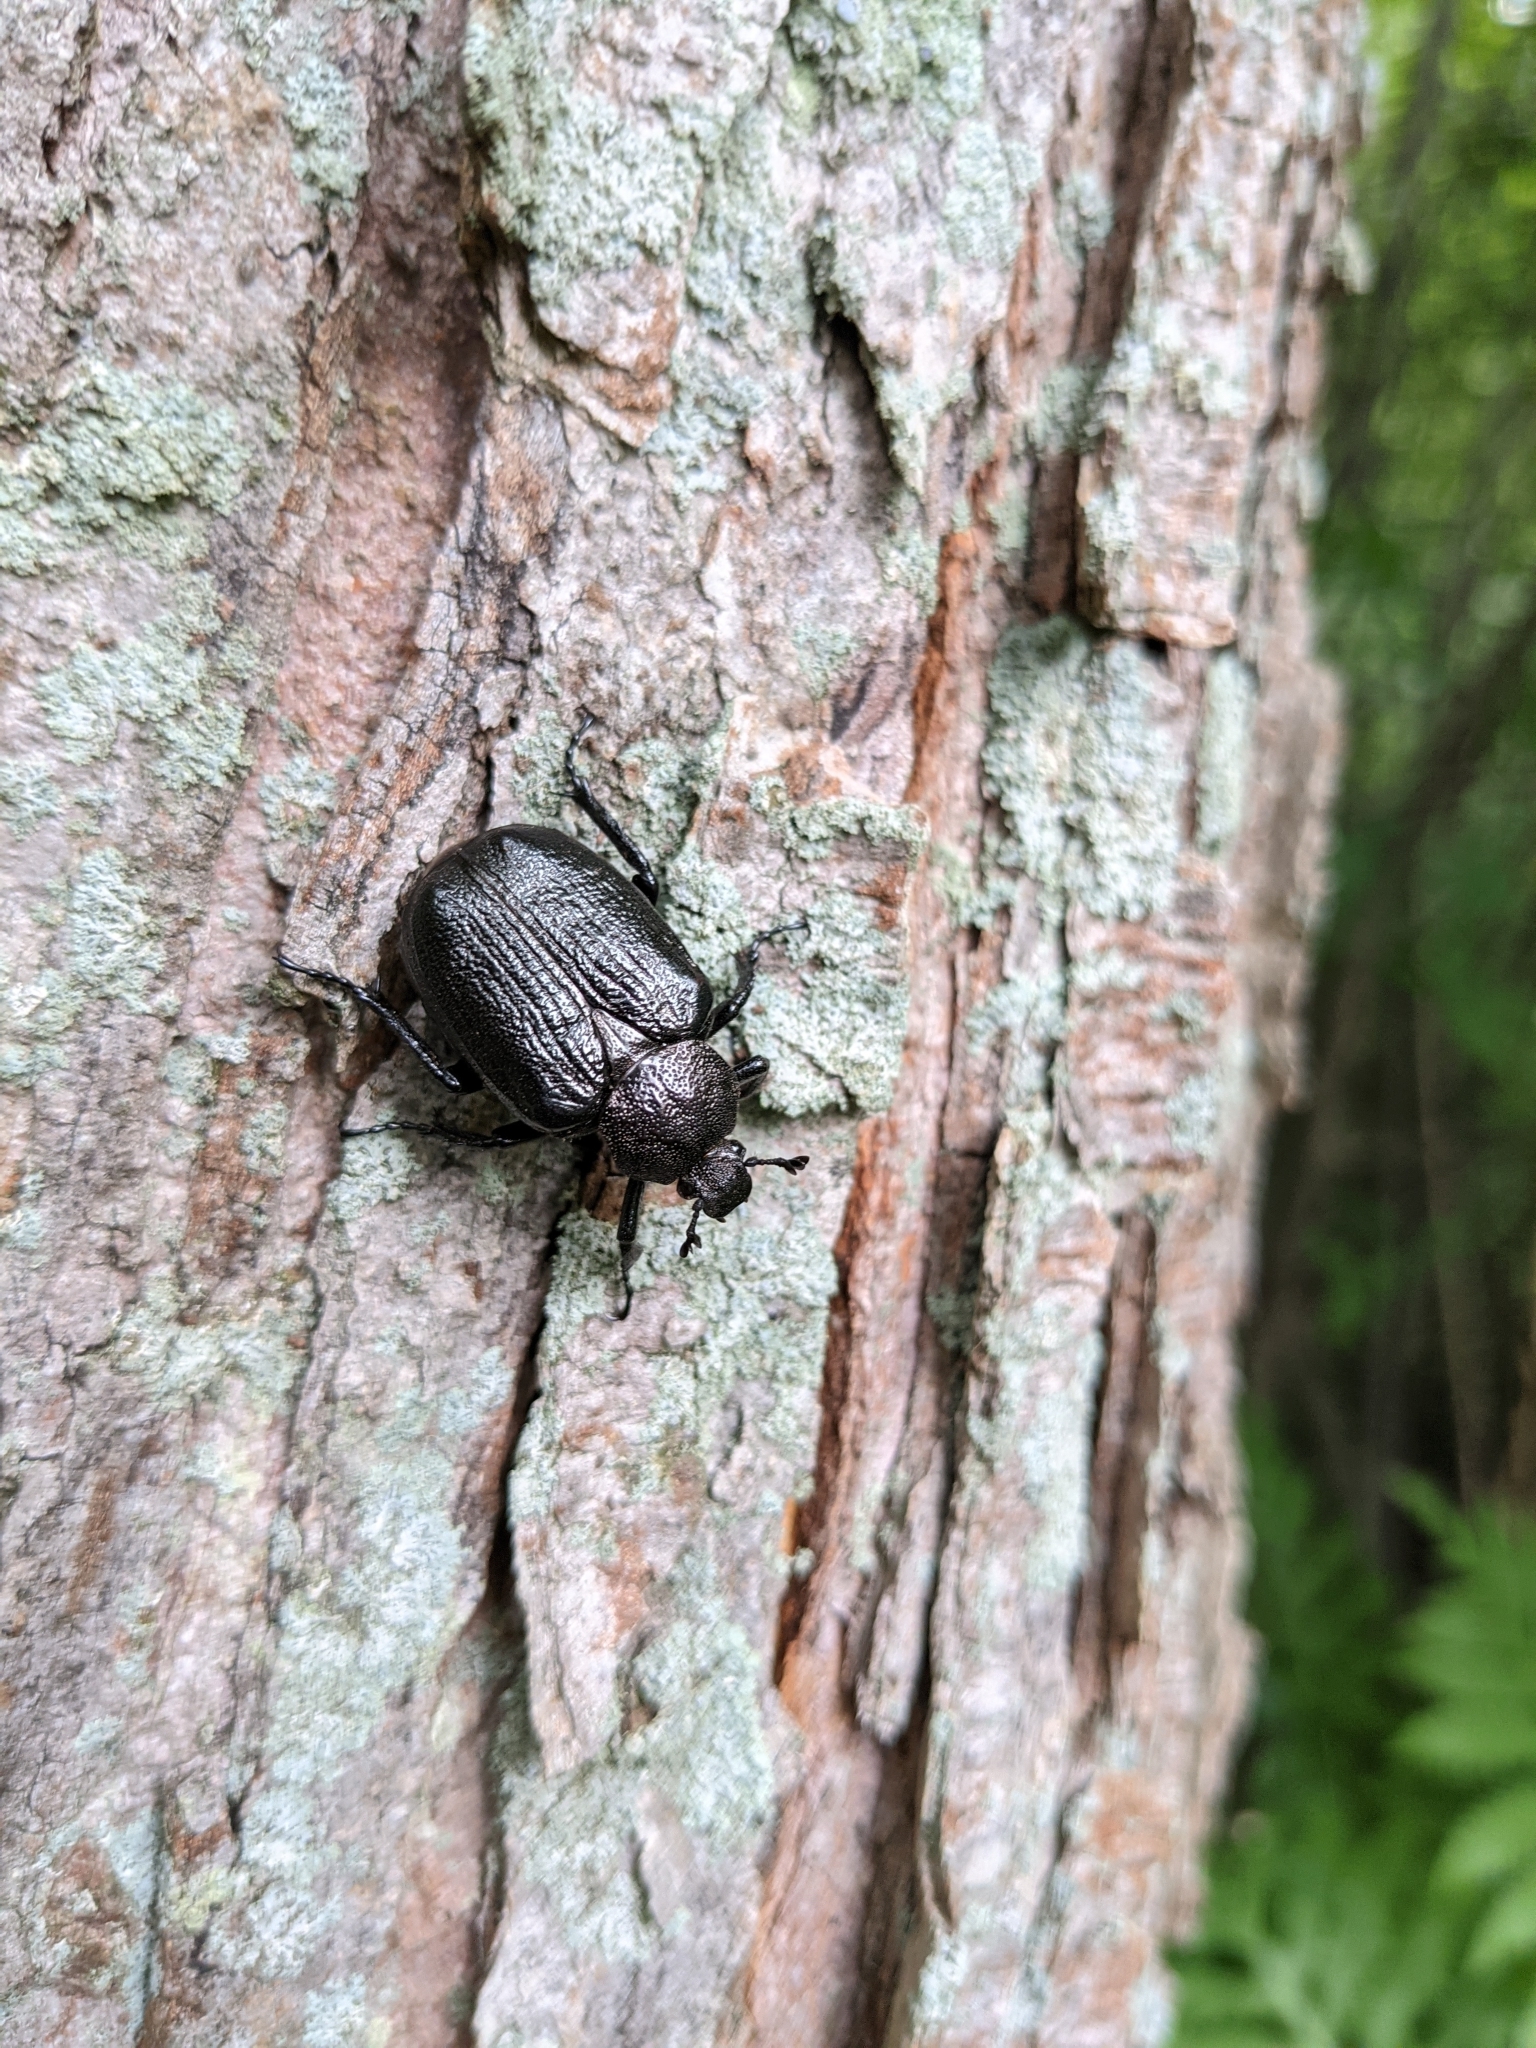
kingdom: Animalia
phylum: Arthropoda
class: Insecta
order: Coleoptera
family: Scarabaeidae
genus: Osmoderma
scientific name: Osmoderma scabra
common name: Rough hermit beetle
